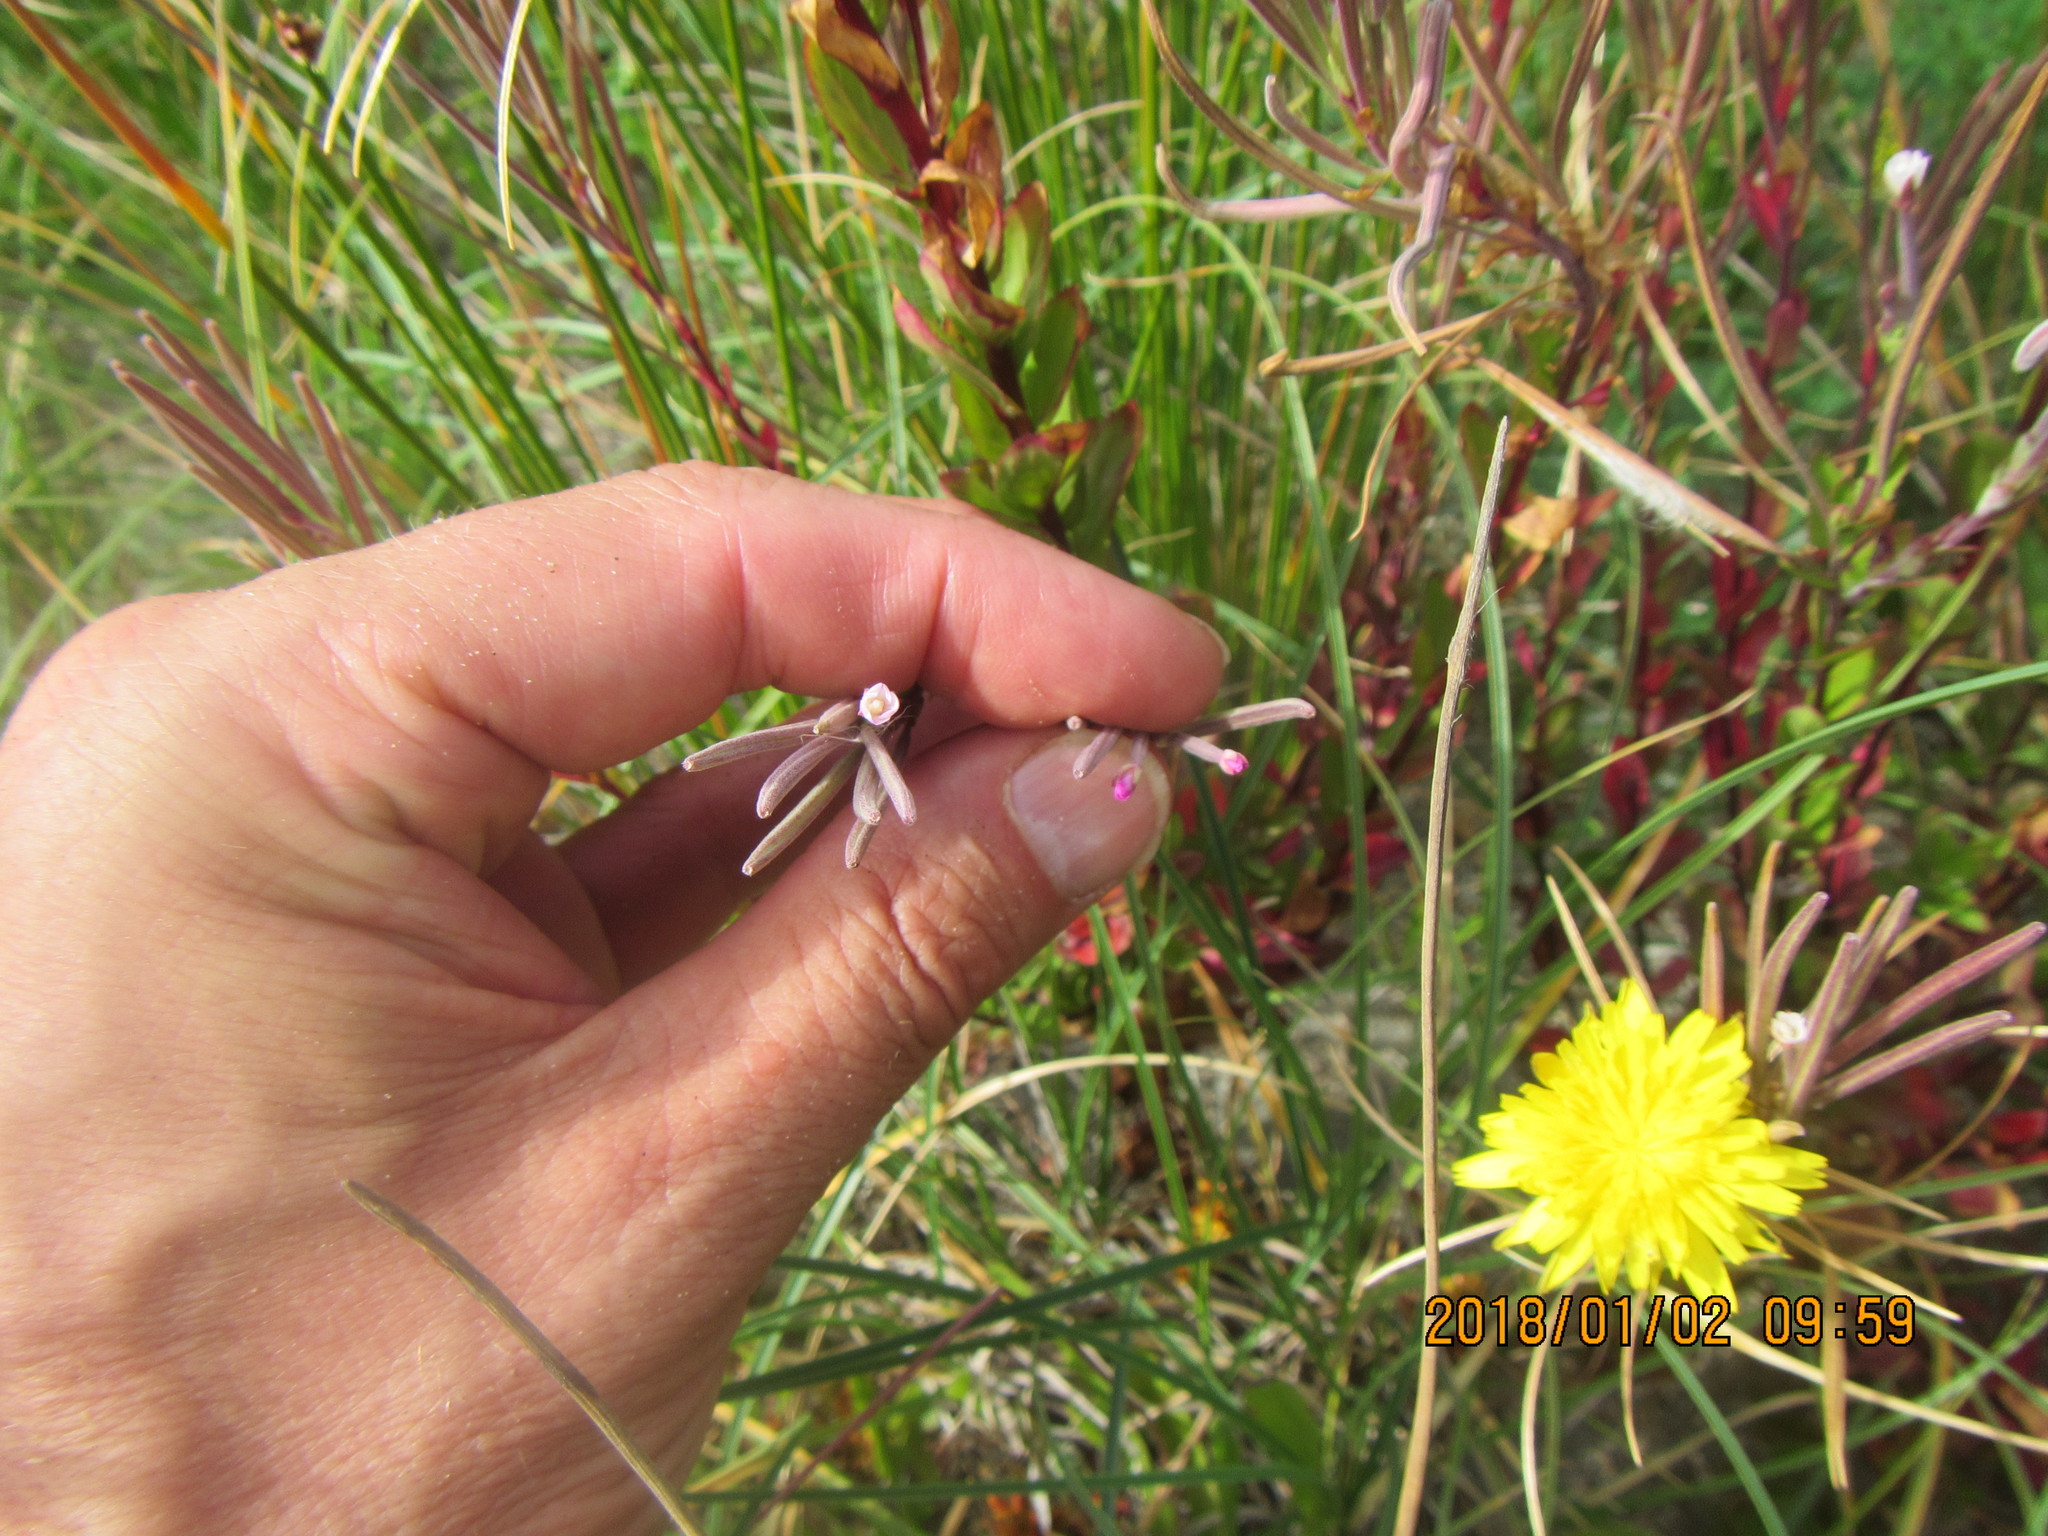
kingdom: Plantae
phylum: Tracheophyta
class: Magnoliopsida
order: Myrtales
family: Onagraceae
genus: Epilobium
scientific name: Epilobium billardiereanum
